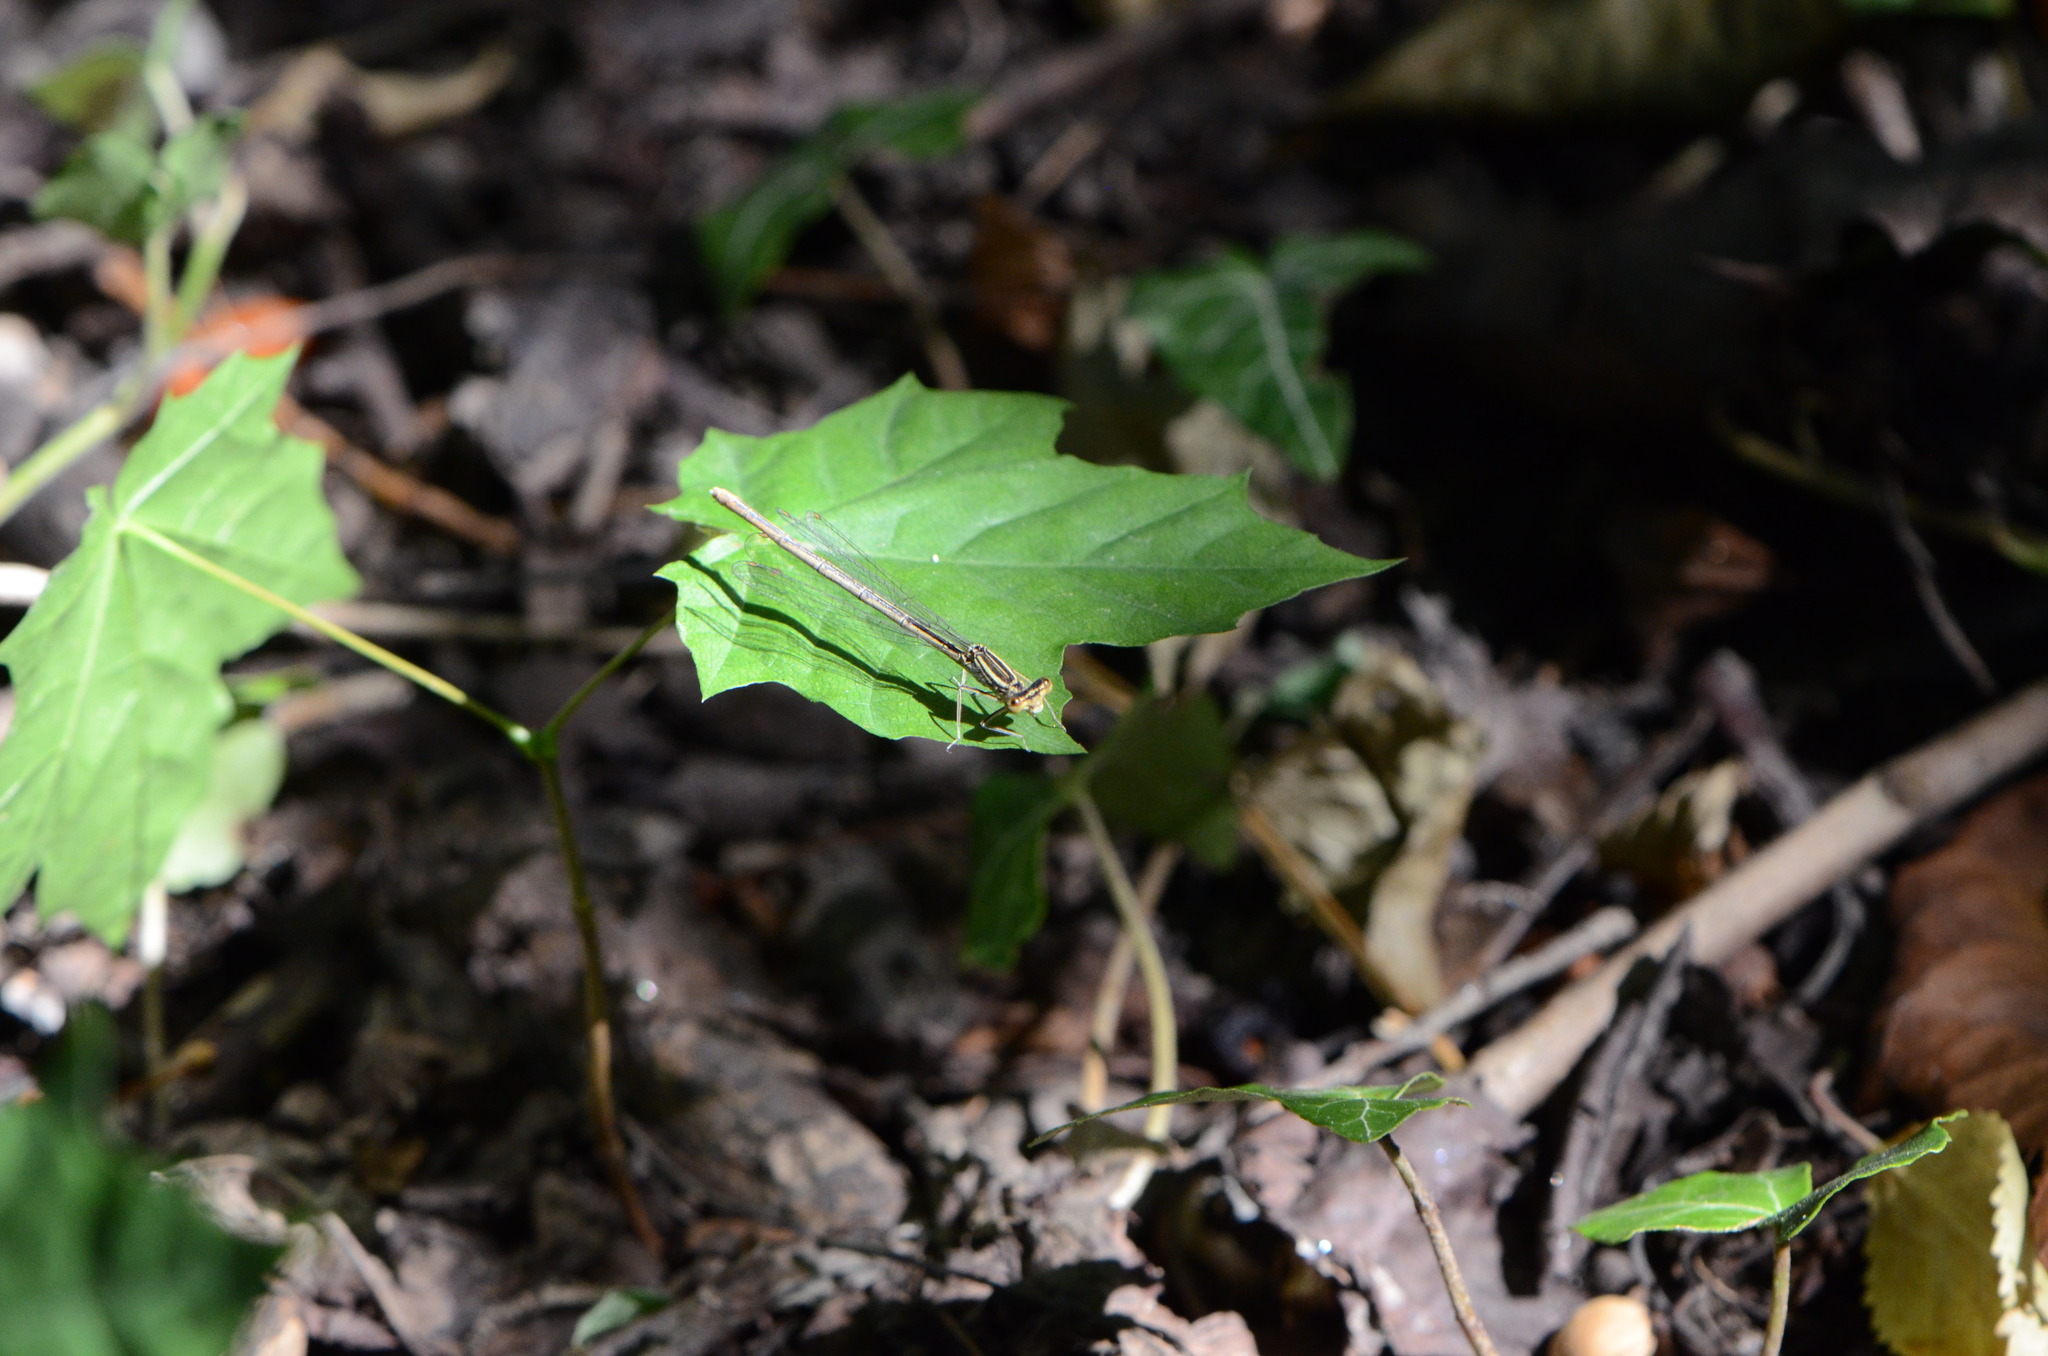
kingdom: Animalia
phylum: Arthropoda
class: Insecta
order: Odonata
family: Platycnemididae
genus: Platycnemis
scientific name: Platycnemis pennipes
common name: White-legged damselfly
